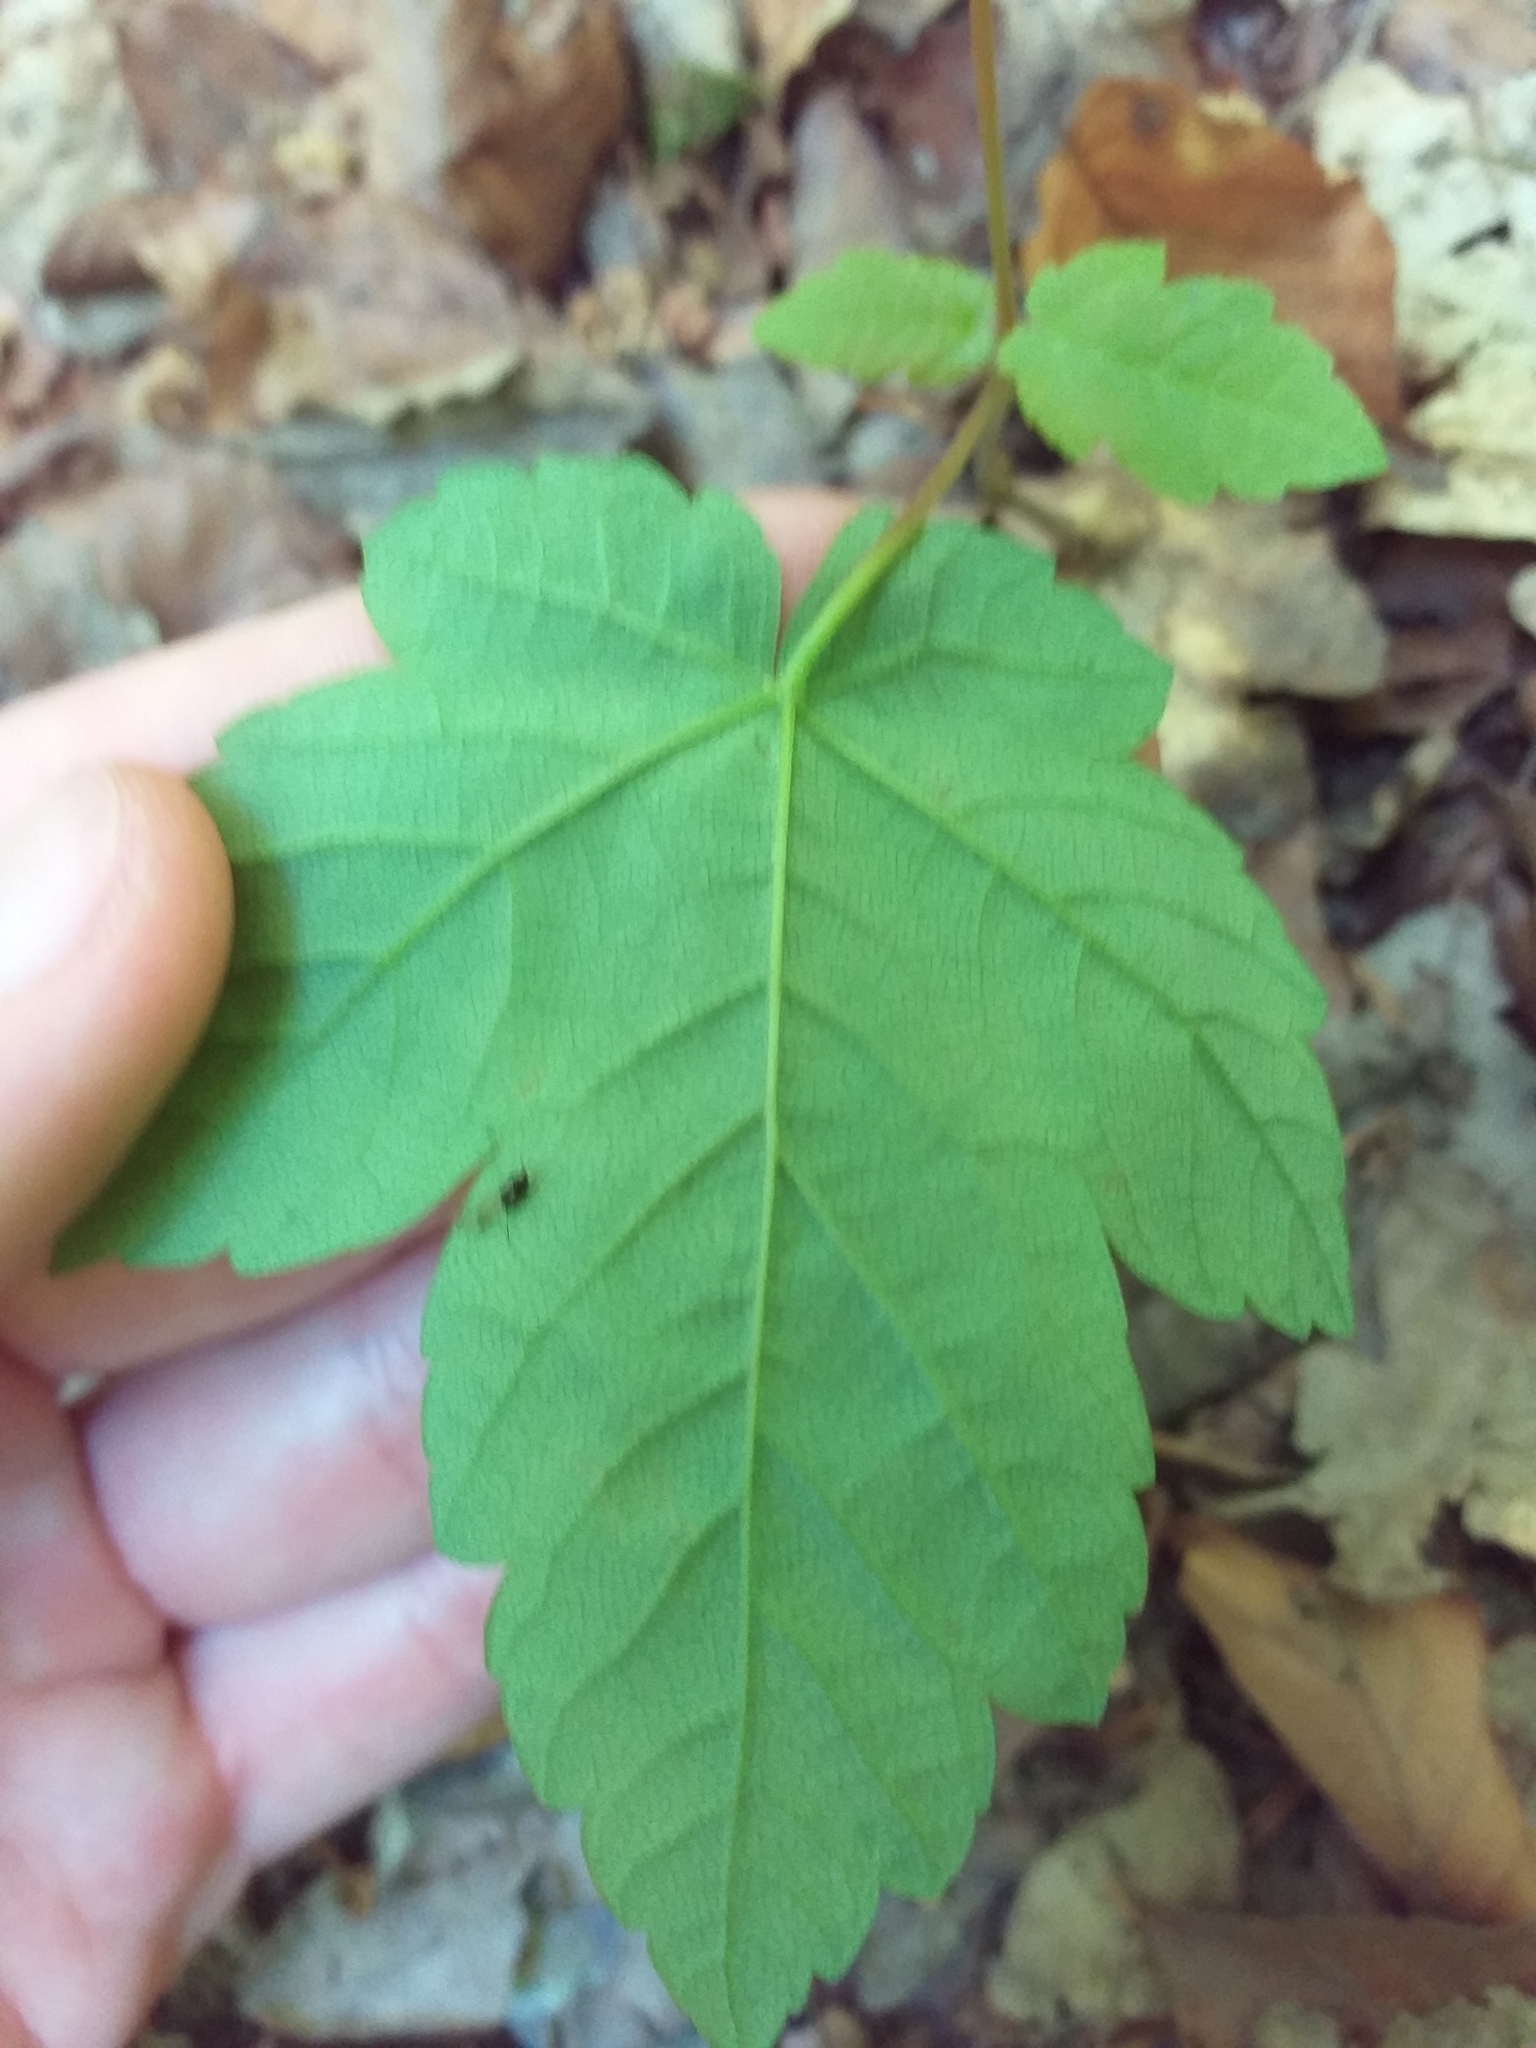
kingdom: Plantae
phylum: Tracheophyta
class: Magnoliopsida
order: Sapindales
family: Sapindaceae
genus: Acer
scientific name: Acer pseudoplatanus
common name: Sycamore
